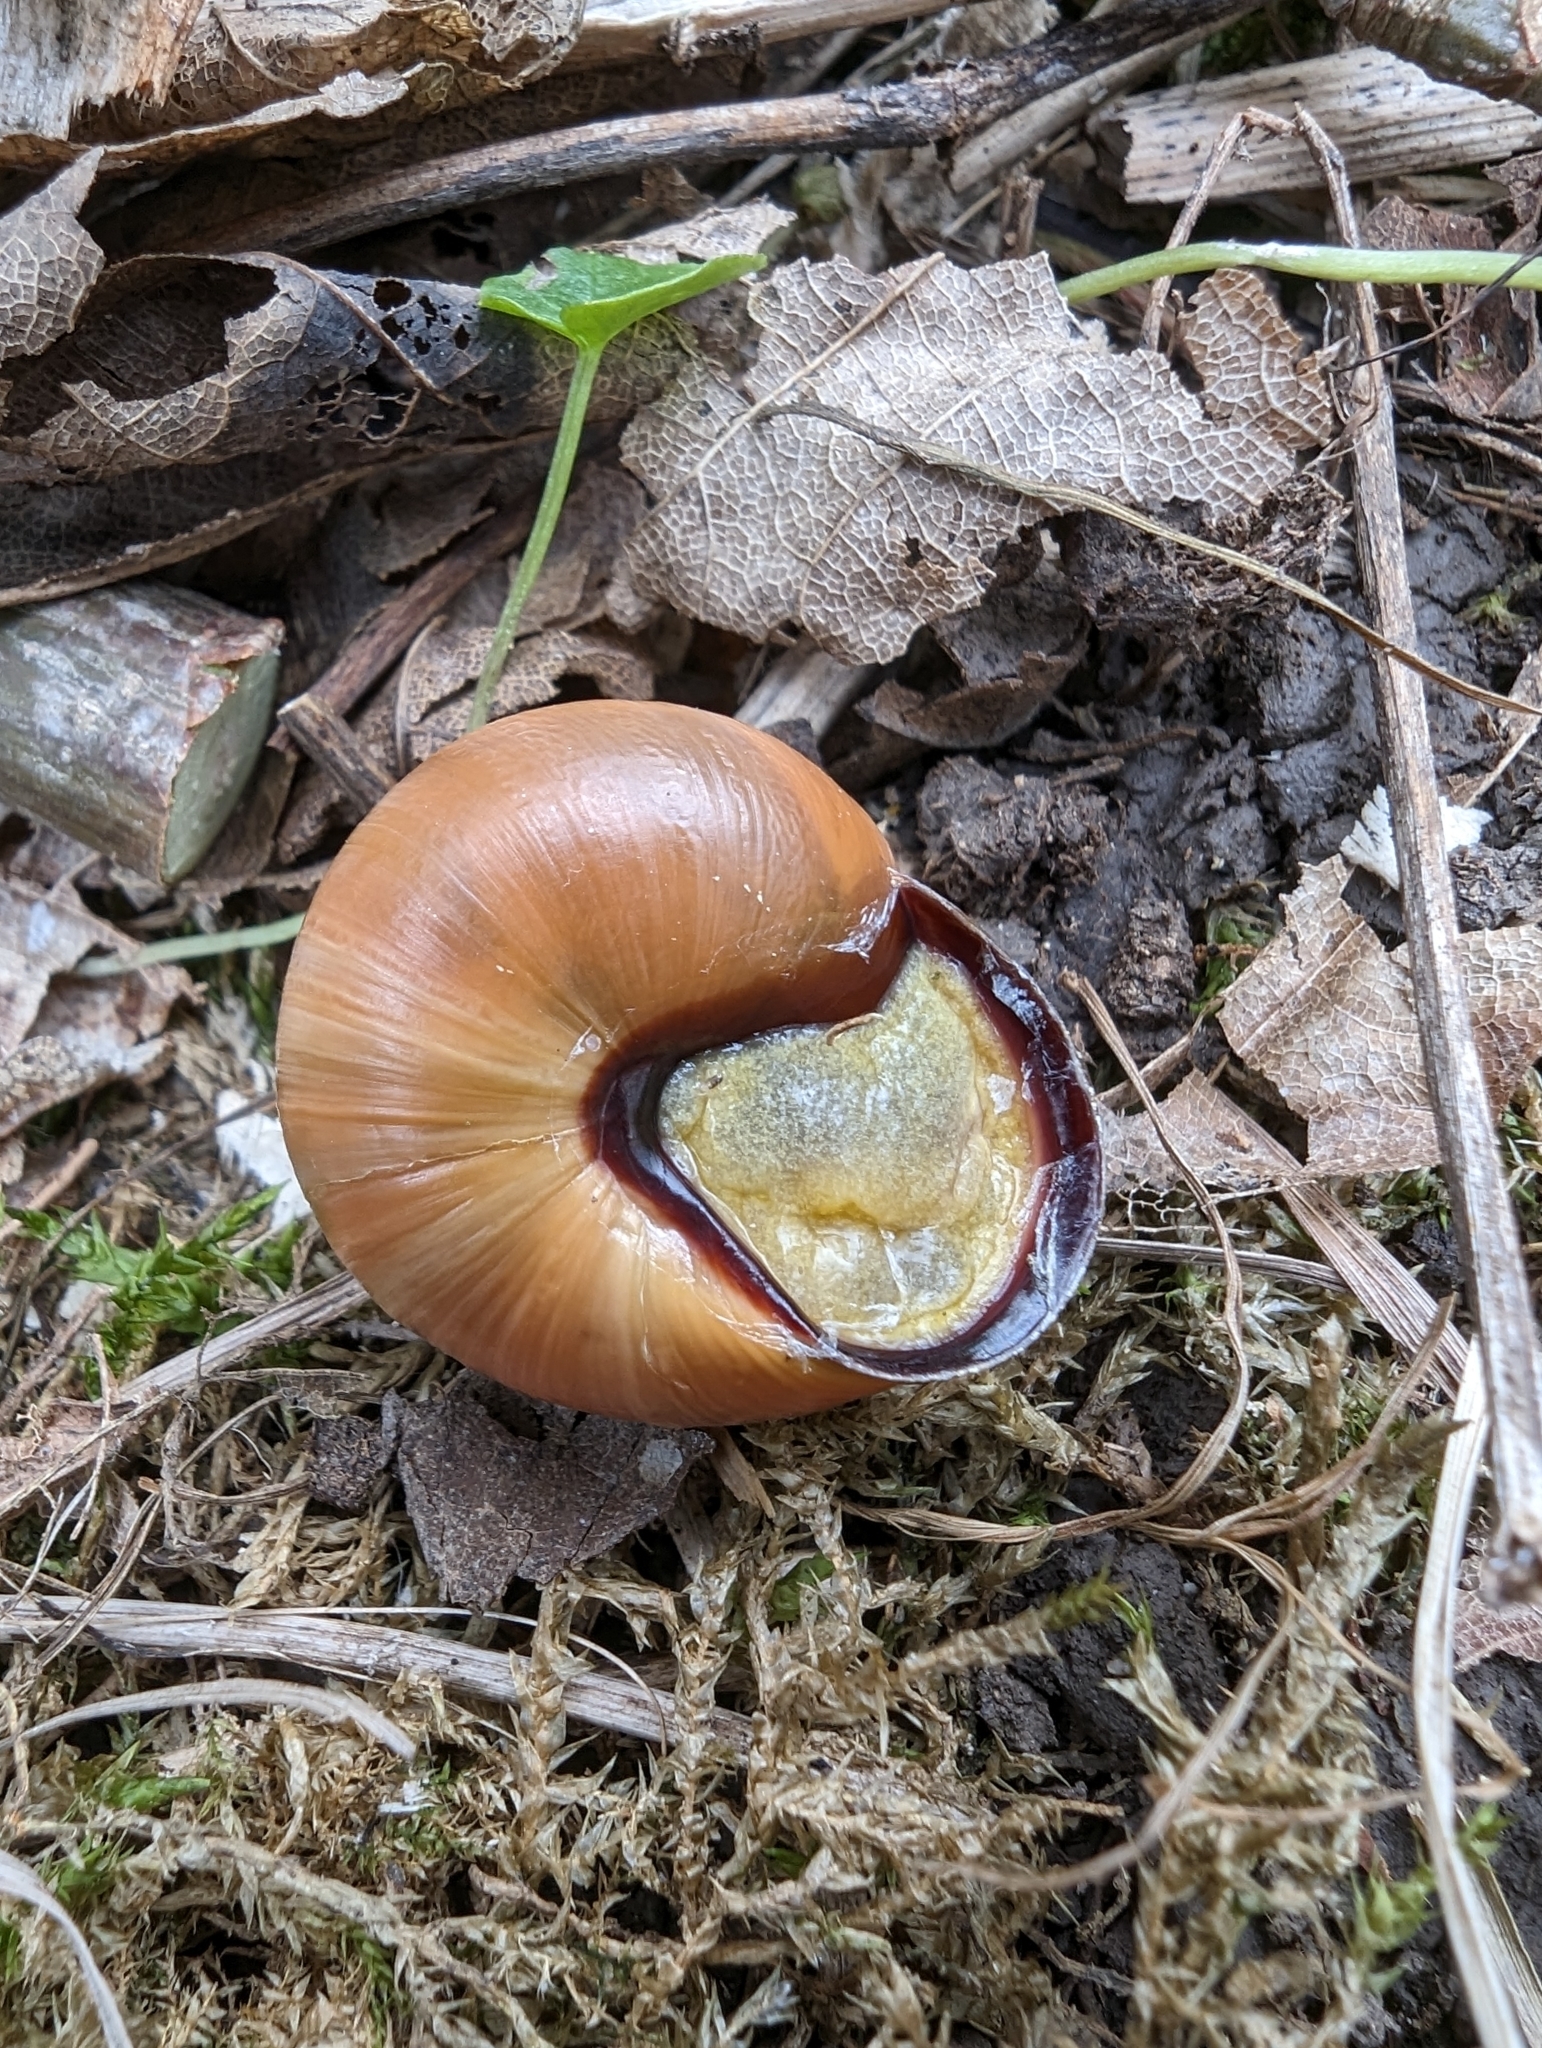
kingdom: Animalia
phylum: Mollusca
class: Gastropoda
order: Stylommatophora
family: Helicidae
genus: Cepaea
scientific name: Cepaea nemoralis
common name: Grovesnail
